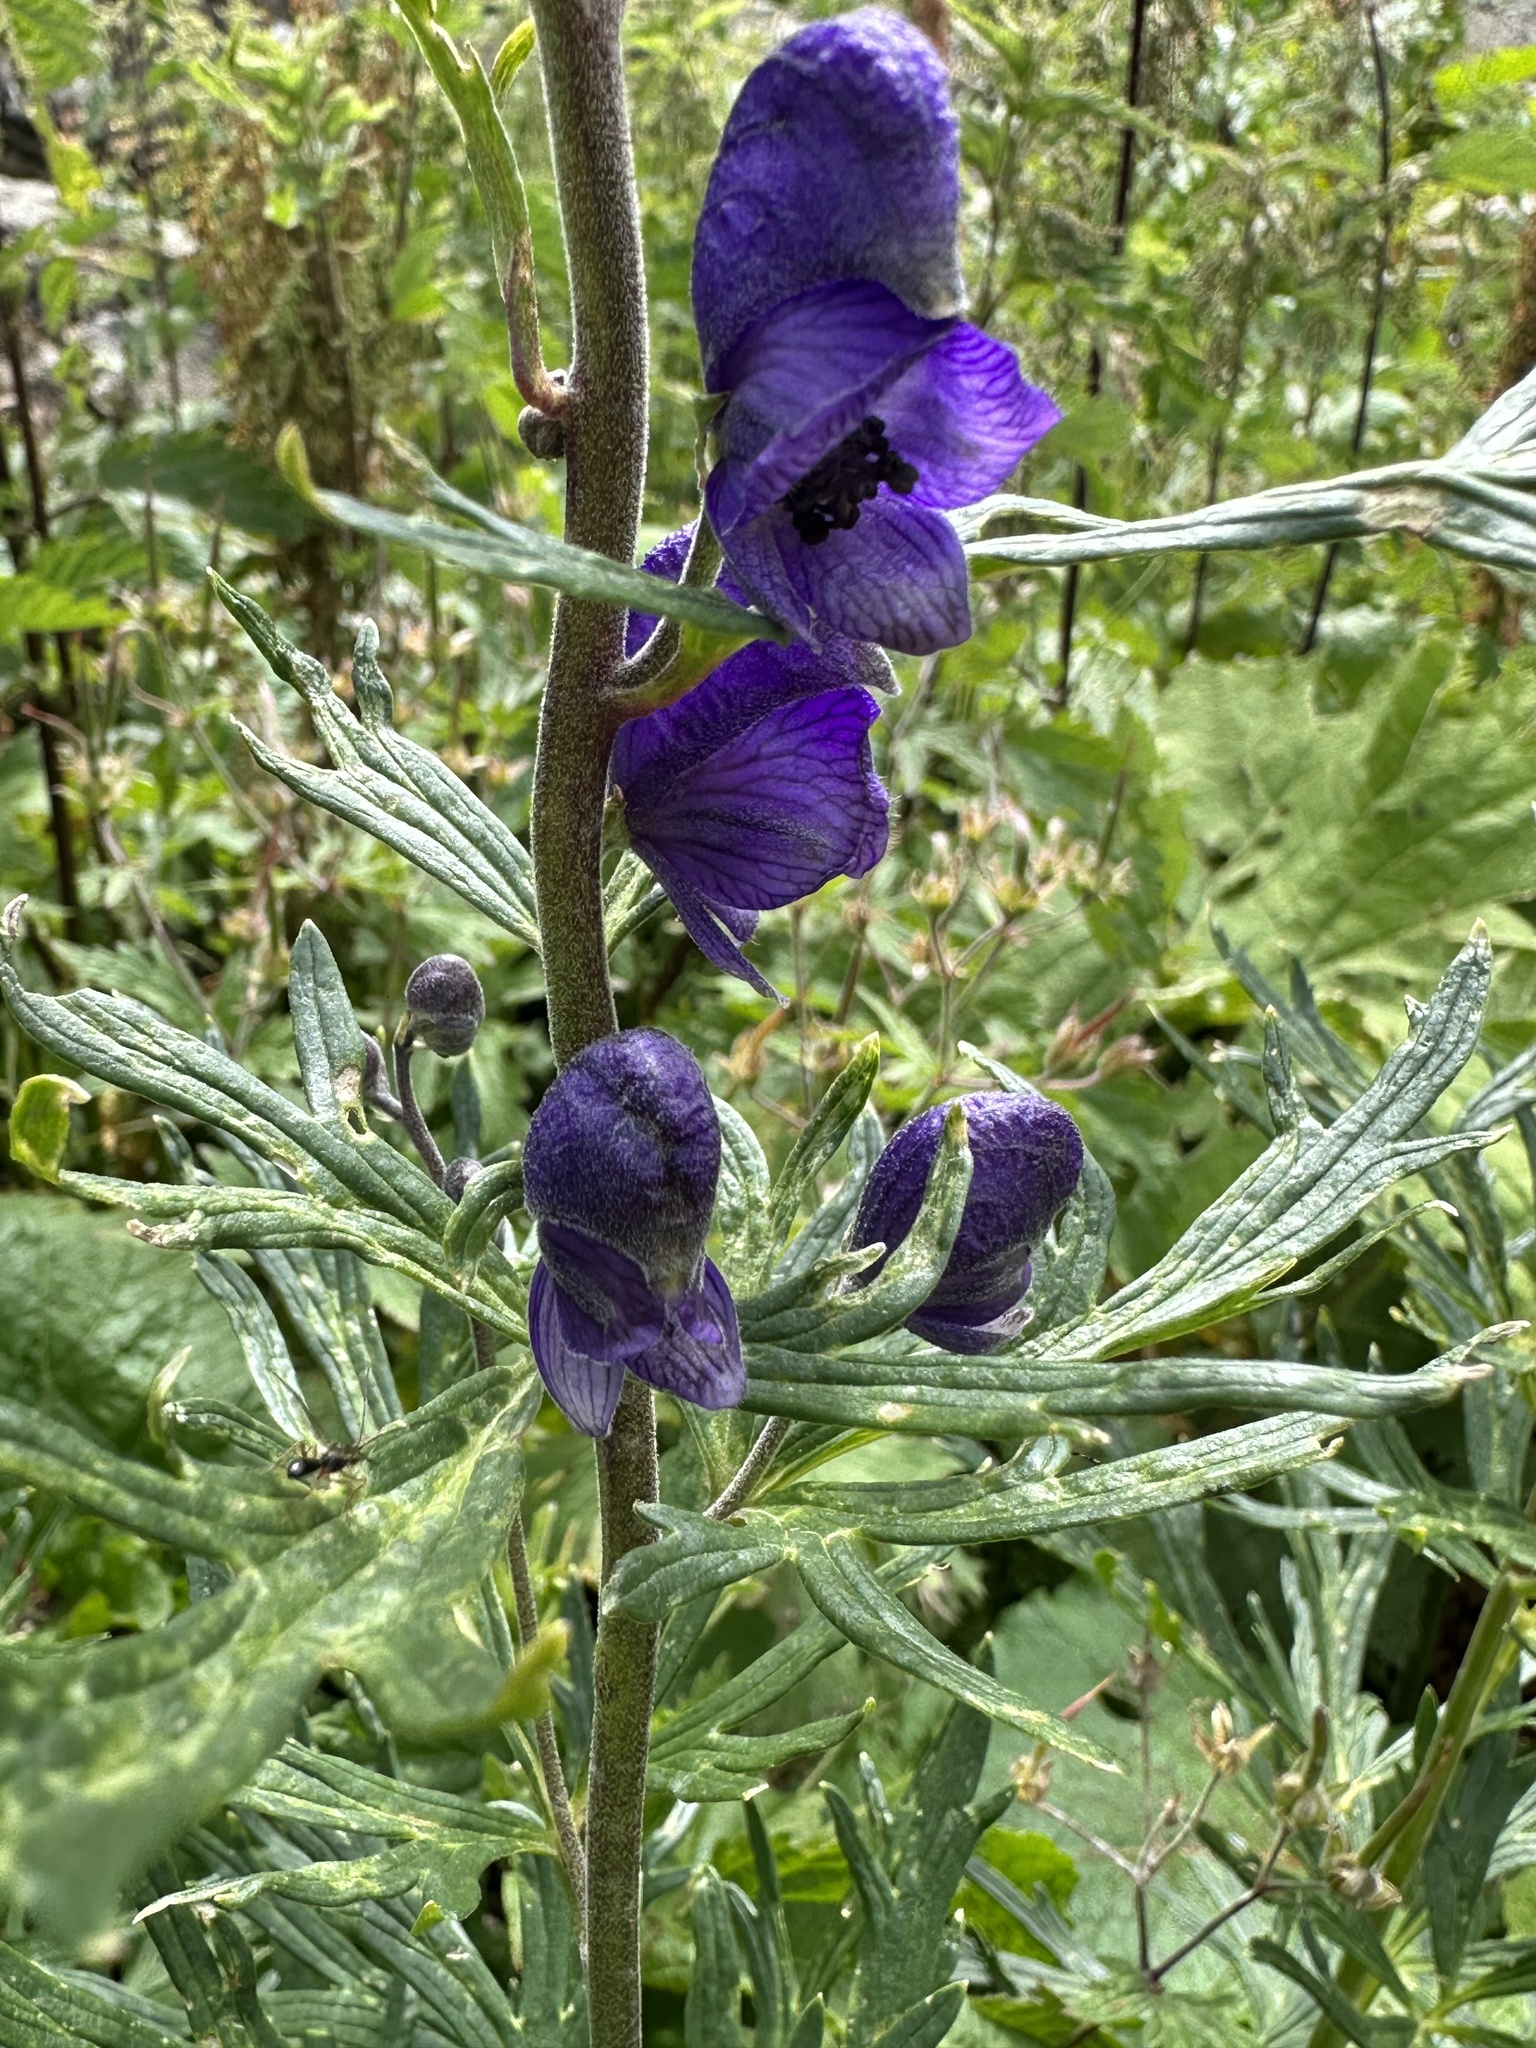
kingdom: Plantae
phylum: Tracheophyta
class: Magnoliopsida
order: Ranunculales
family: Ranunculaceae
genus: Aconitum
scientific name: Aconitum napellus
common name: Garden monkshood
